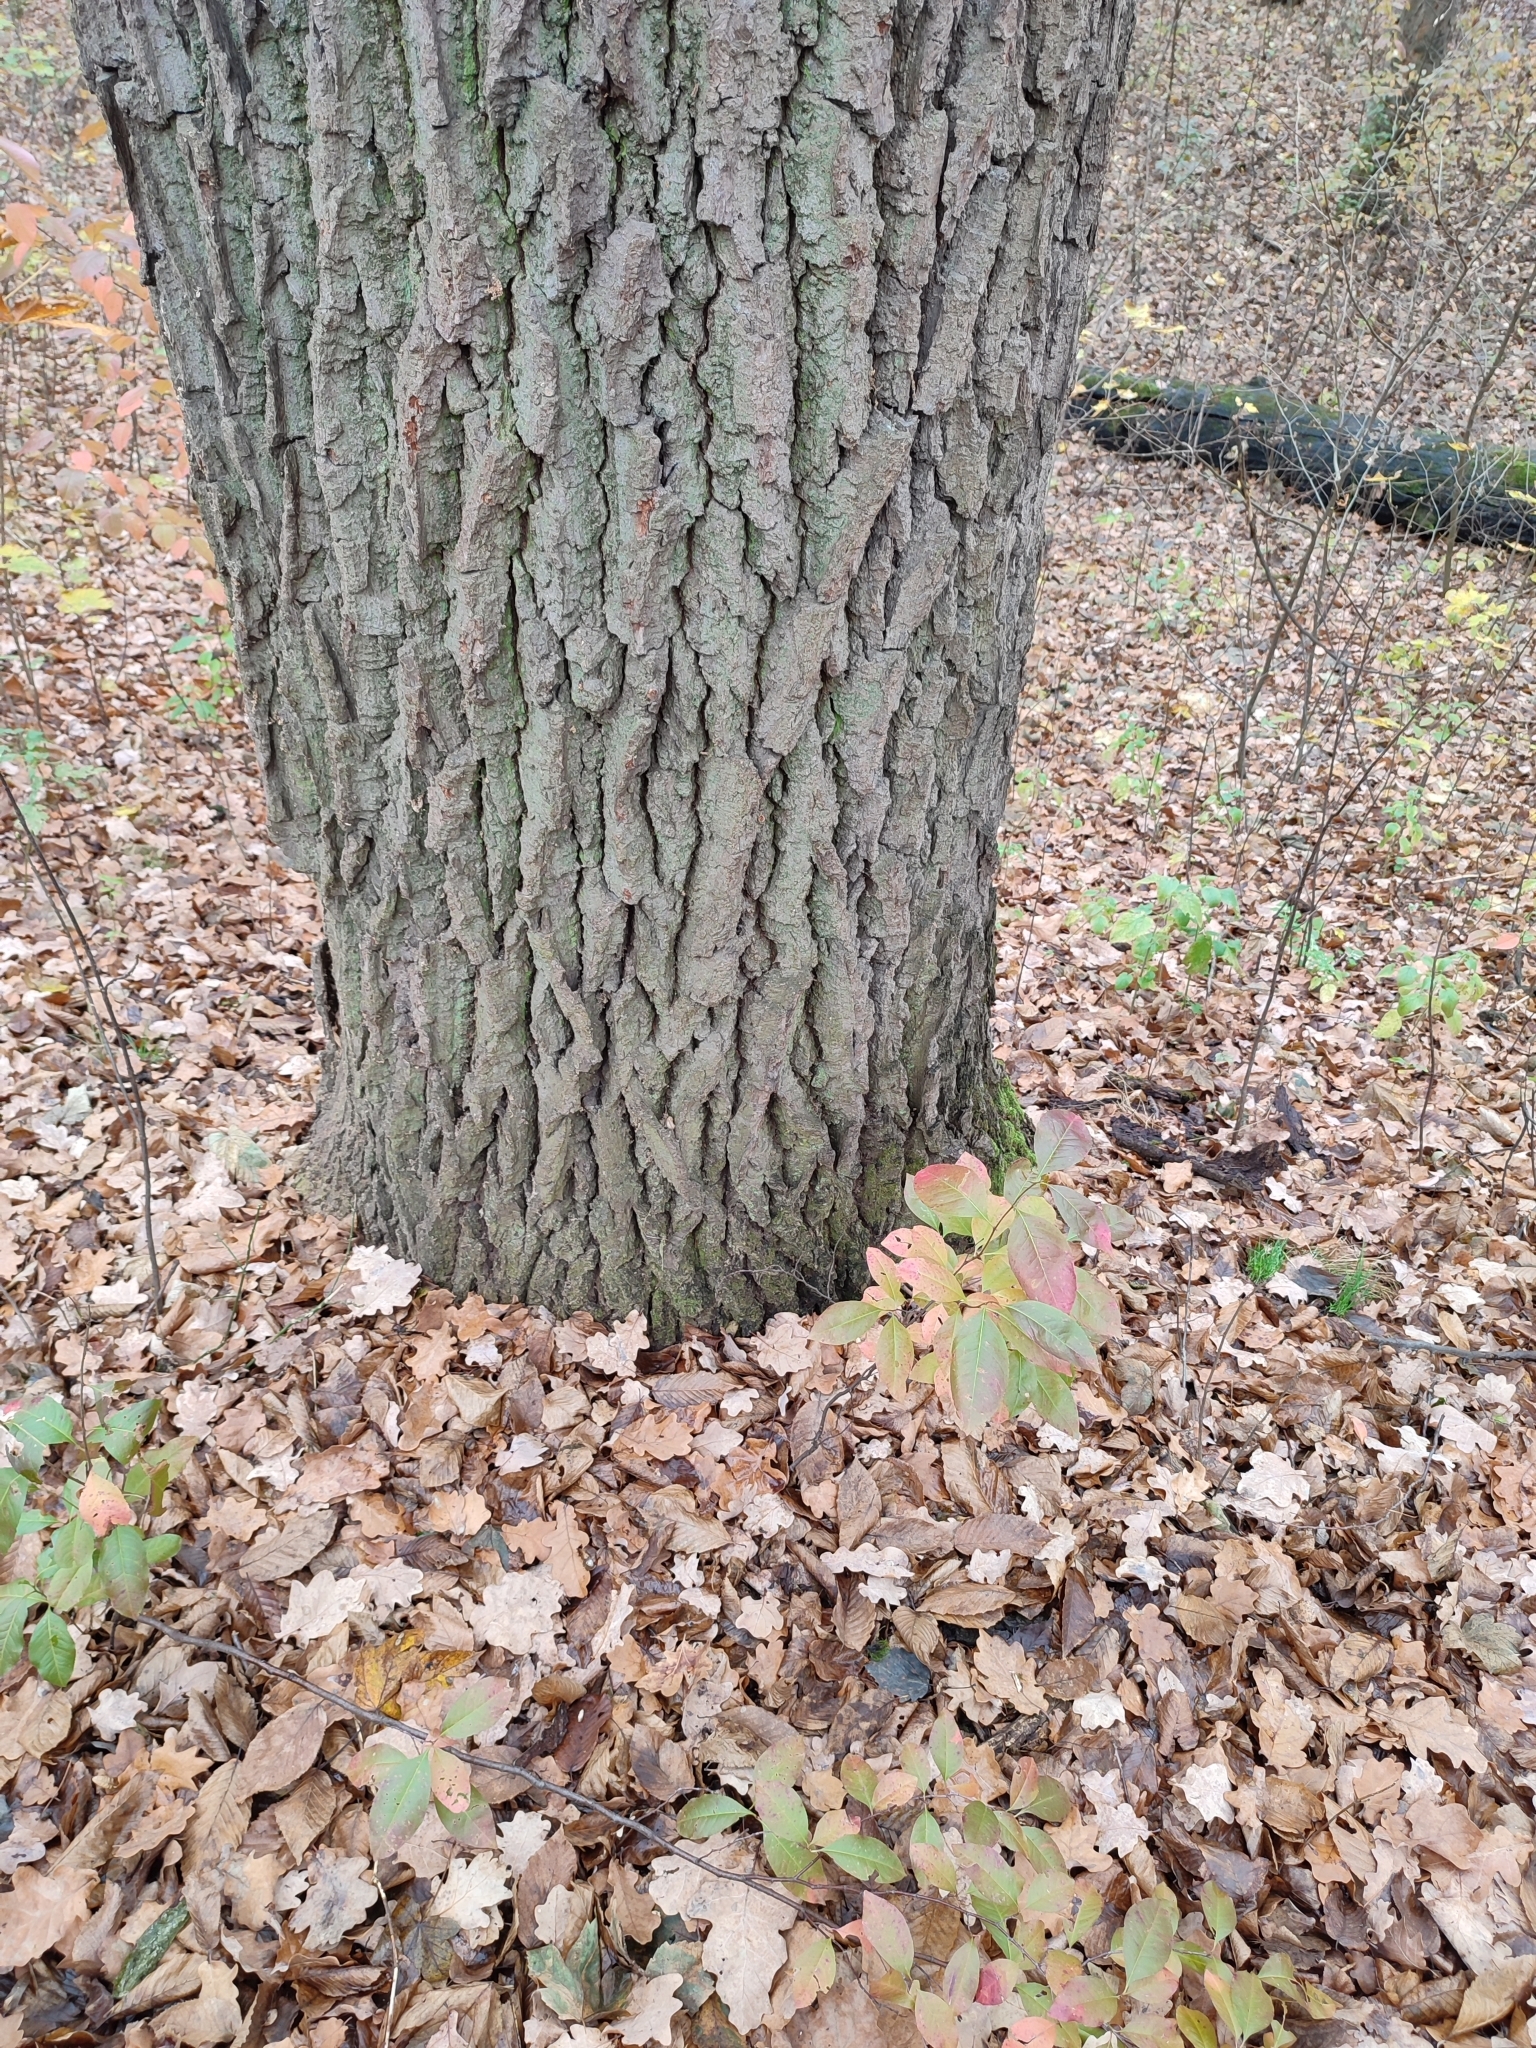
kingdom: Plantae
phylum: Tracheophyta
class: Magnoliopsida
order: Fagales
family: Fagaceae
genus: Quercus
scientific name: Quercus robur
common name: Pedunculate oak
